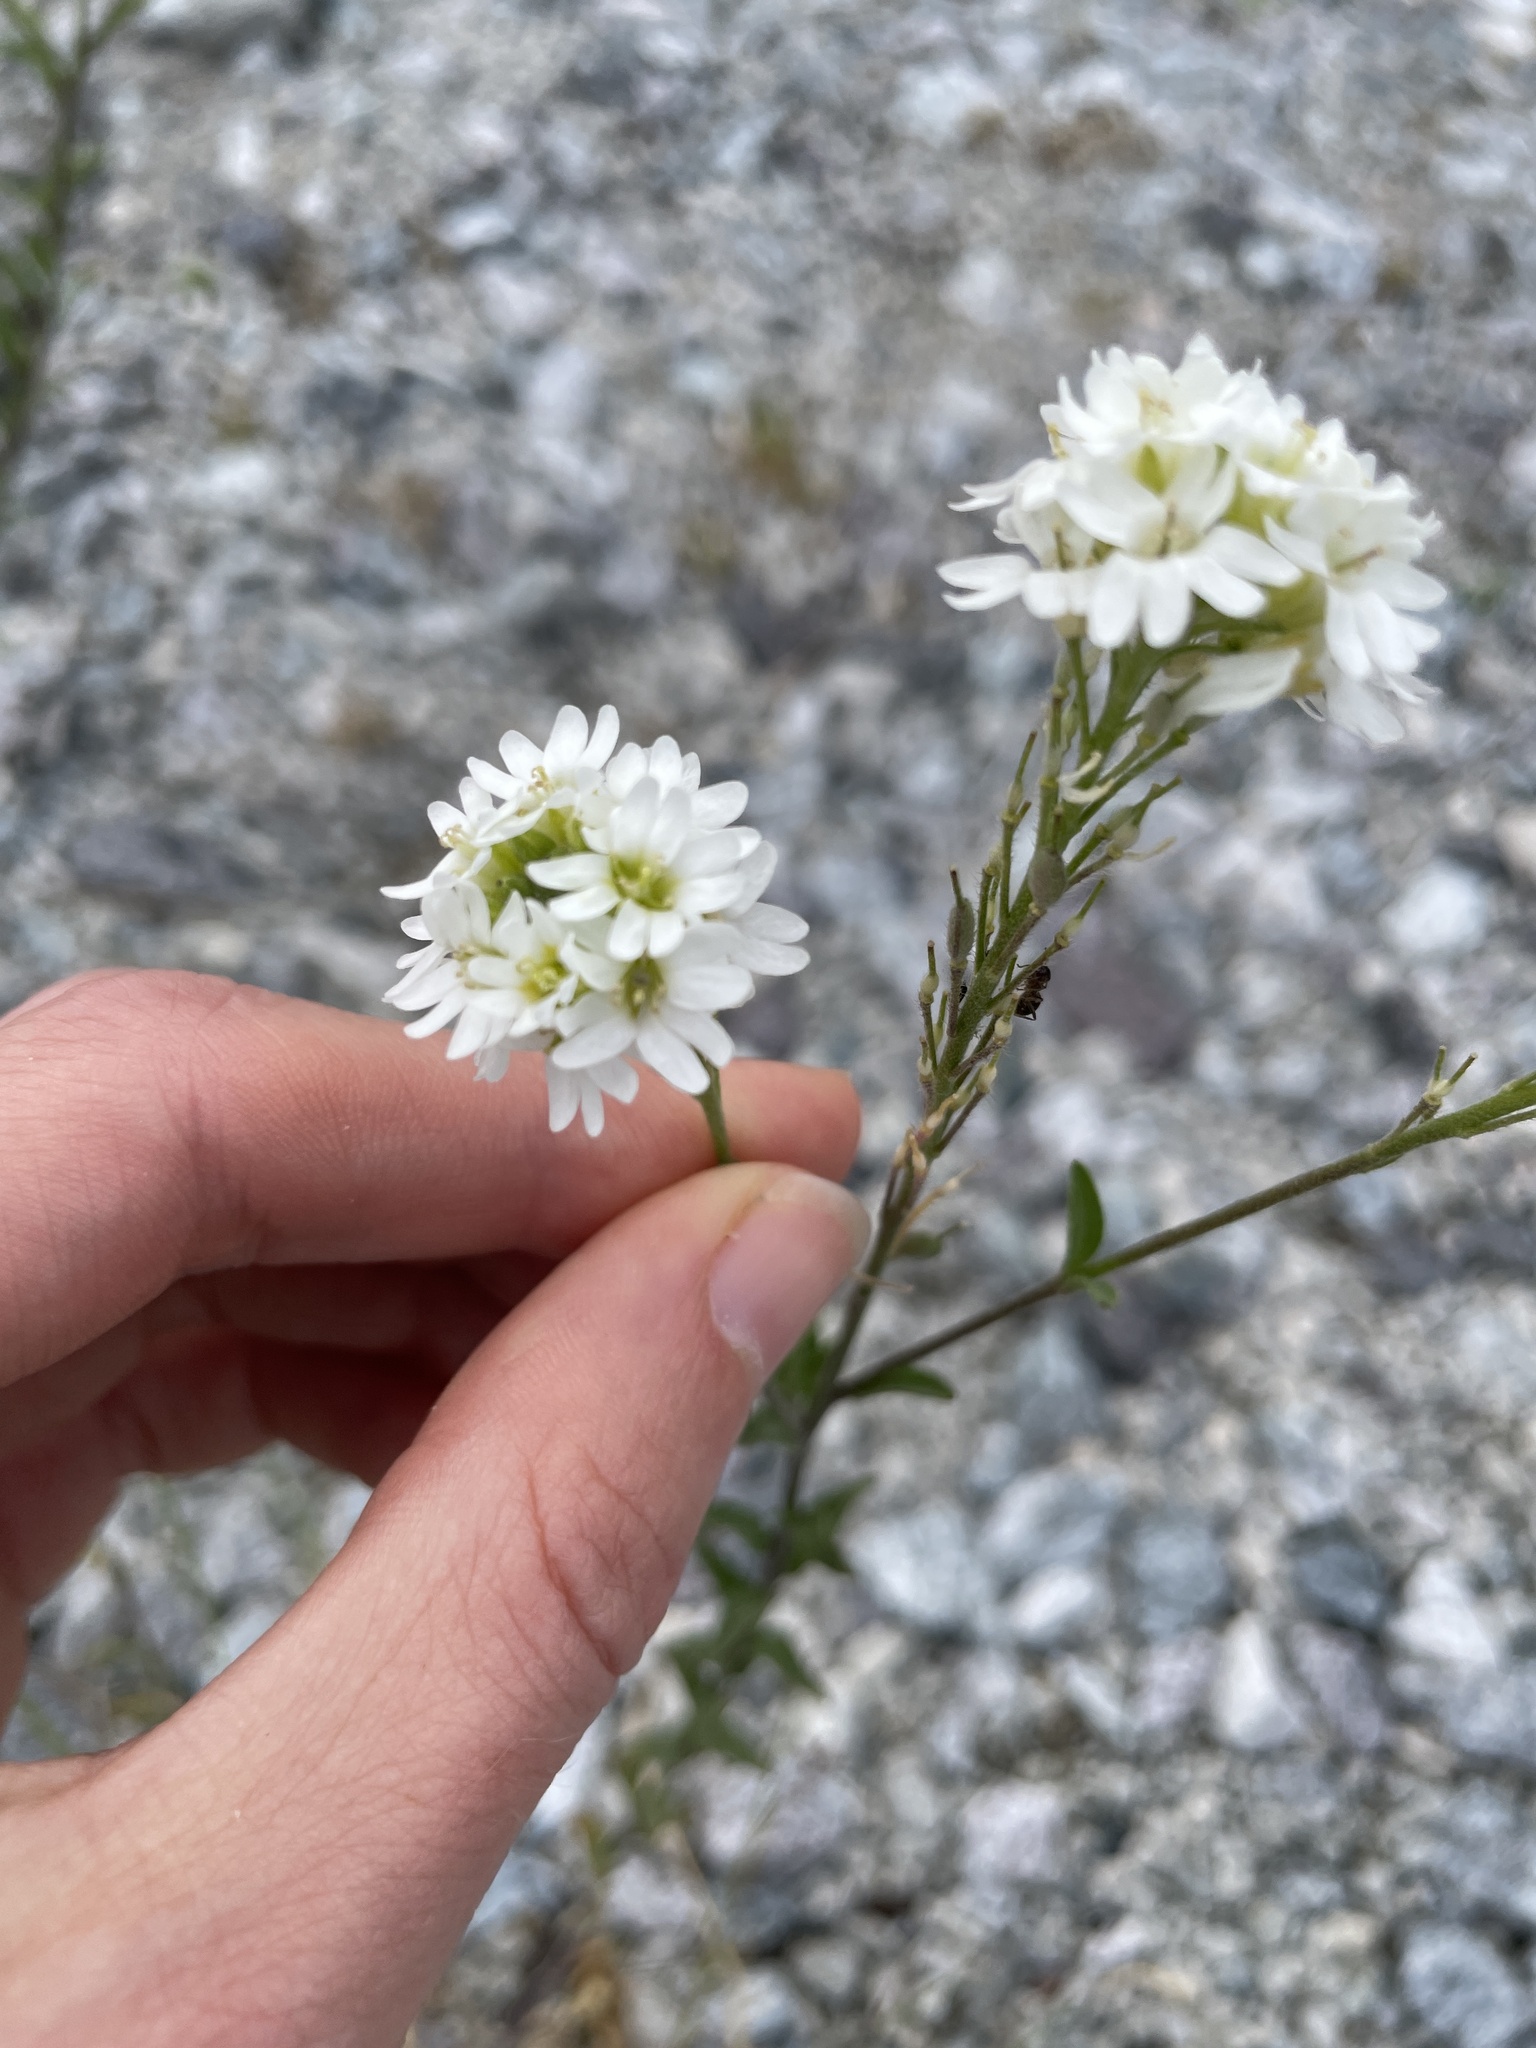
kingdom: Plantae
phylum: Tracheophyta
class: Magnoliopsida
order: Brassicales
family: Brassicaceae
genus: Berteroa
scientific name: Berteroa incana
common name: Hoary alison
